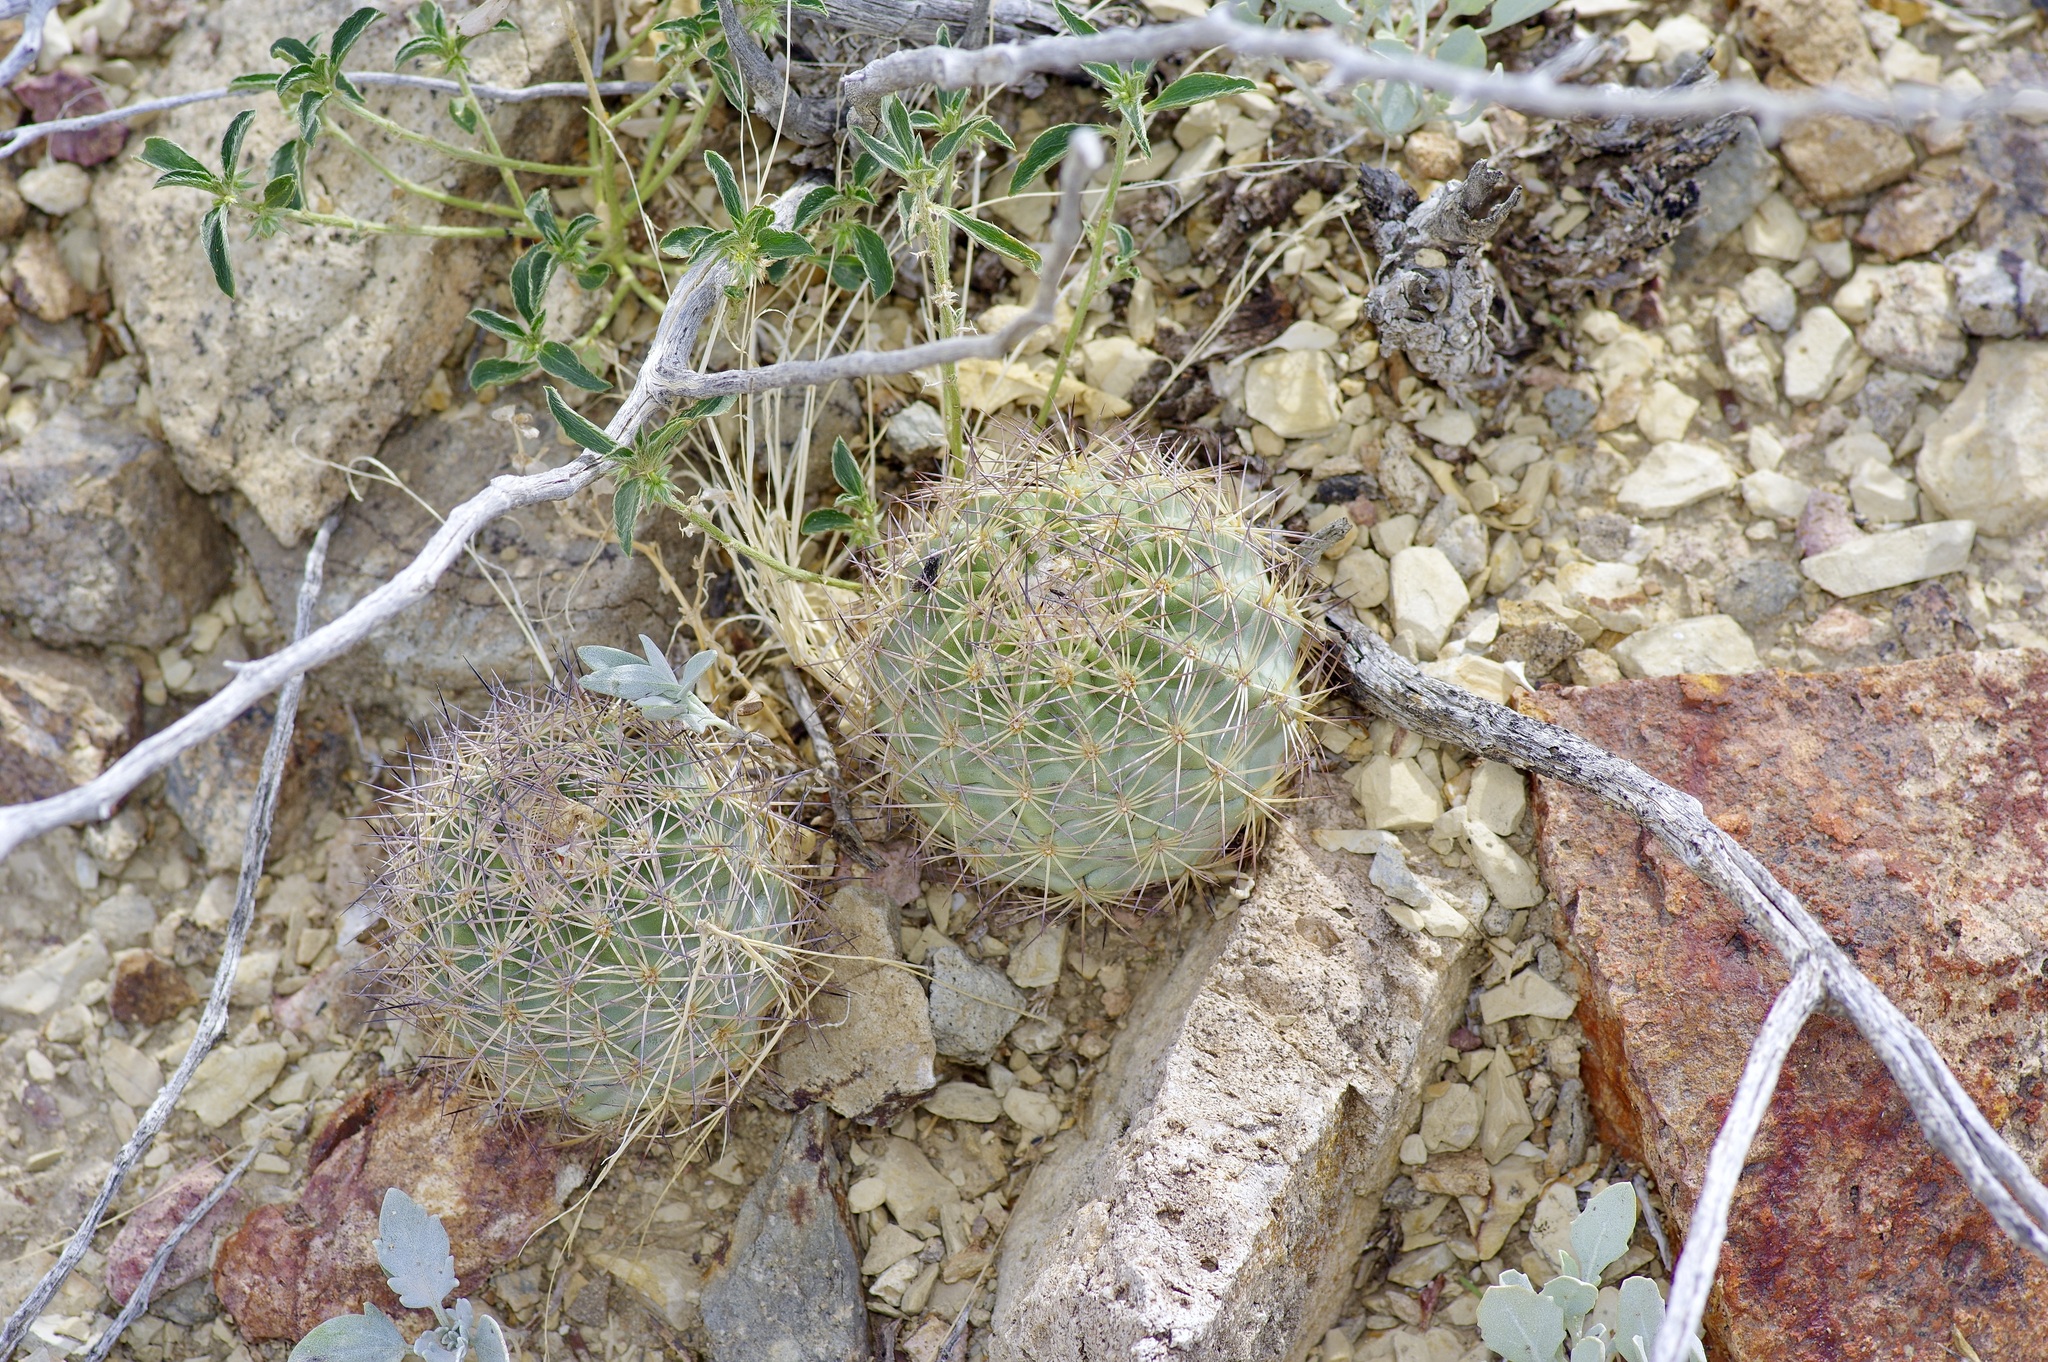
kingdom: Plantae
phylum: Tracheophyta
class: Magnoliopsida
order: Caryophyllales
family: Cactaceae
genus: Sclerocactus
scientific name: Sclerocactus warnockii
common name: Pineapple cactus
